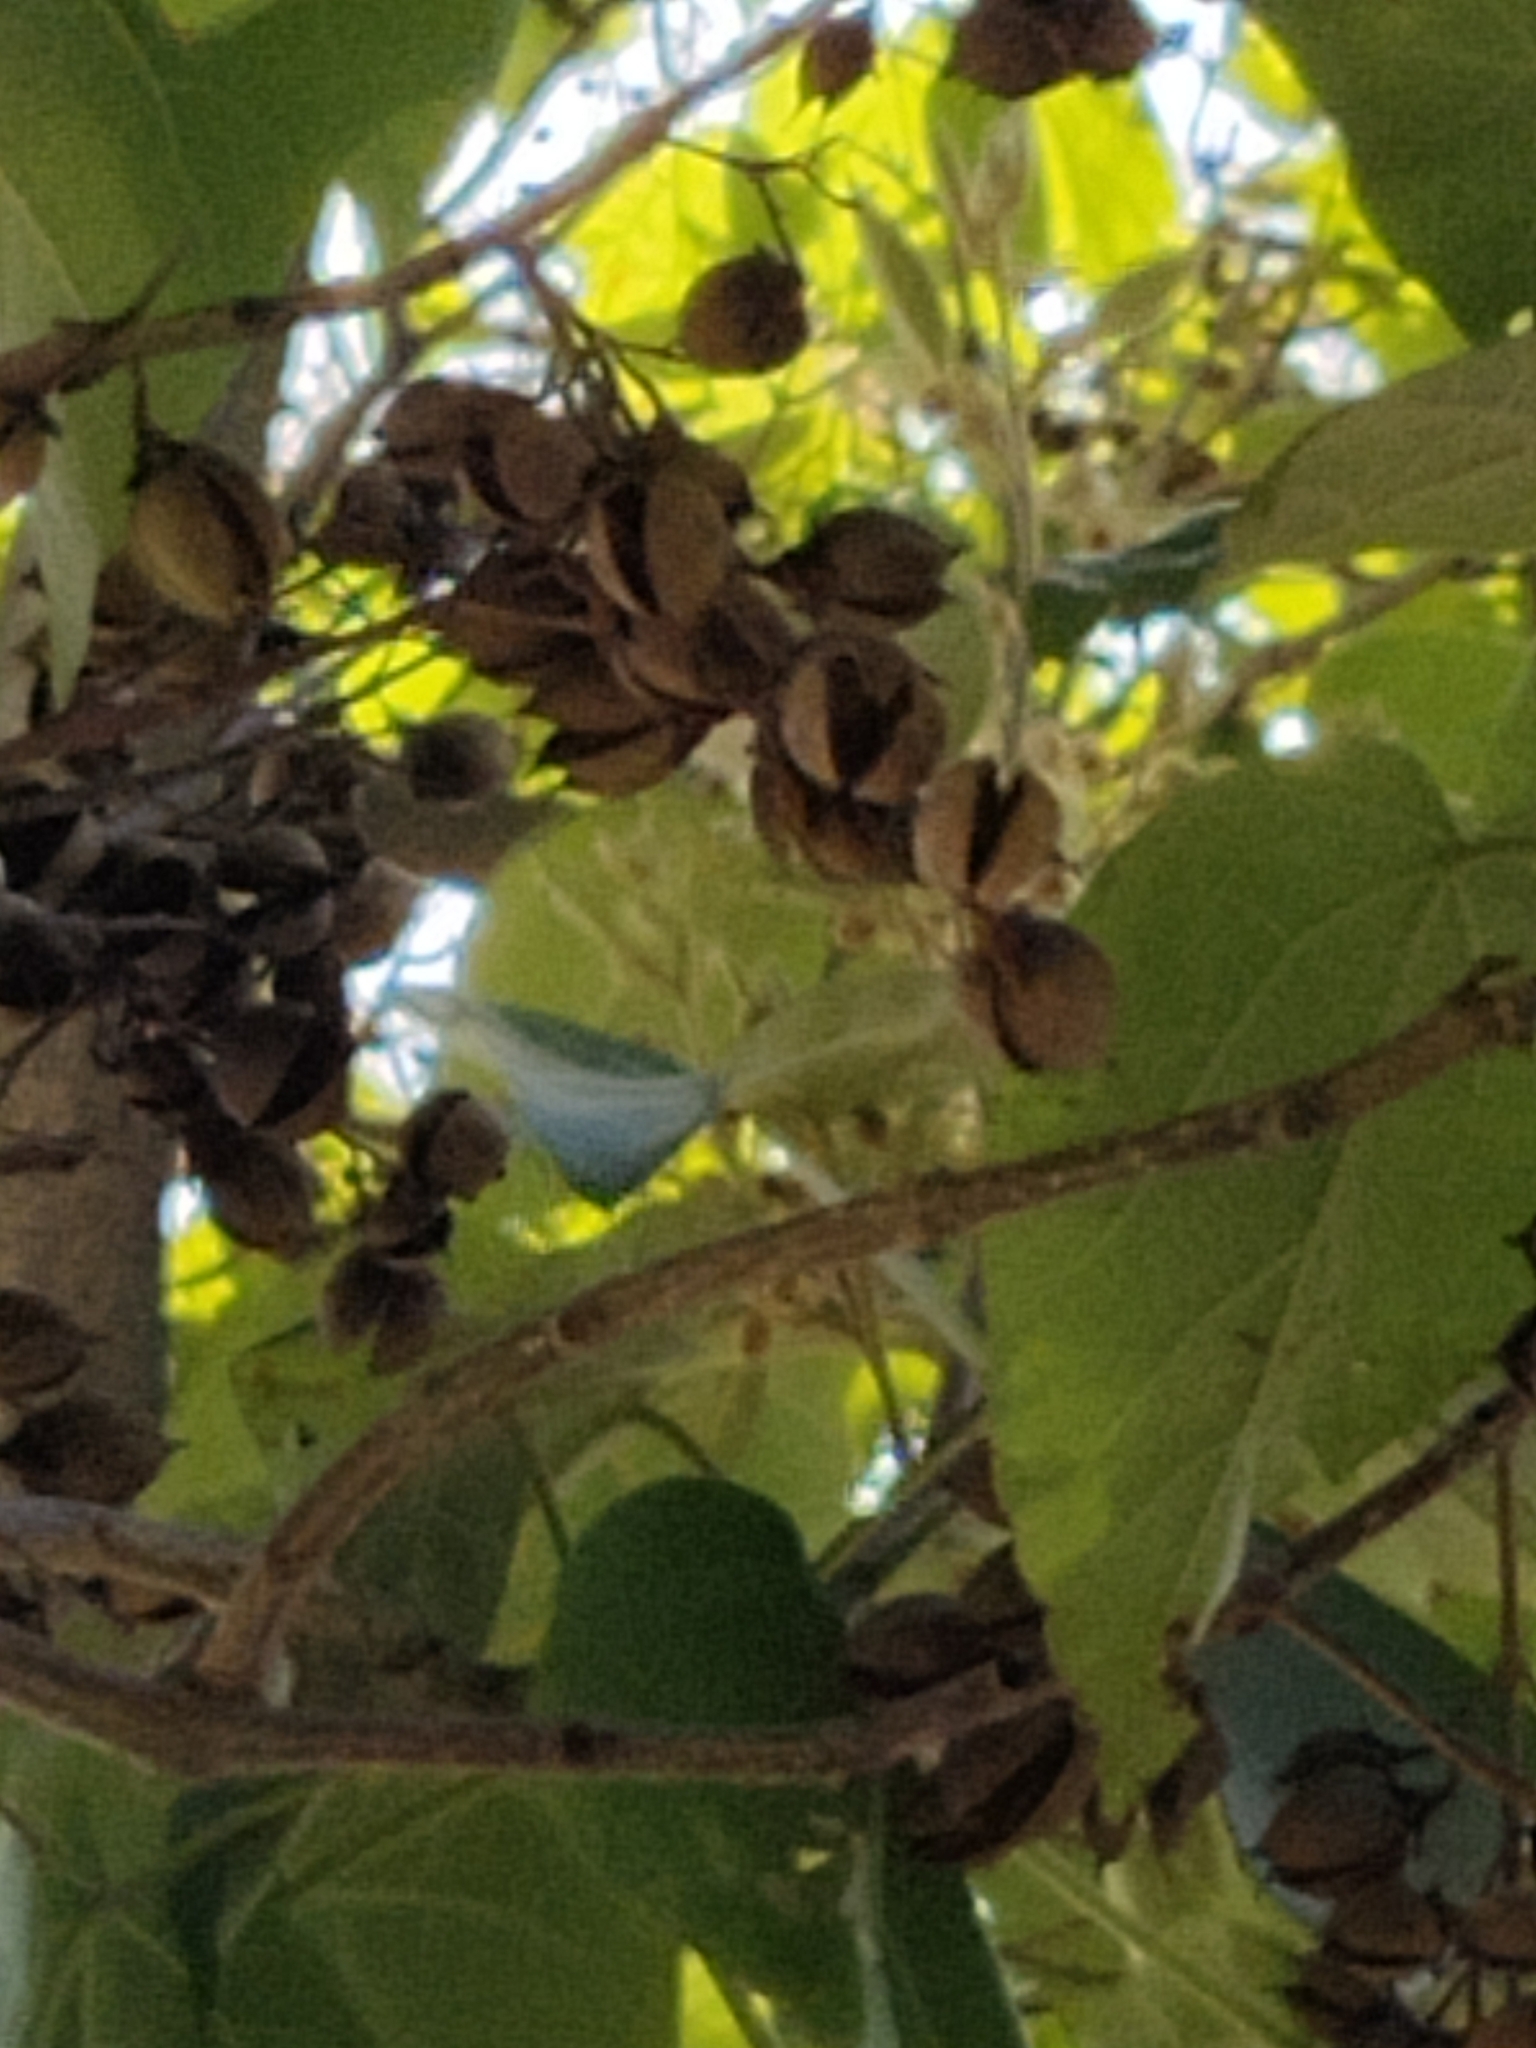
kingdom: Plantae
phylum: Tracheophyta
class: Magnoliopsida
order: Lamiales
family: Paulowniaceae
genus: Paulownia
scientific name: Paulownia tomentosa
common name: Foxglove-tree
